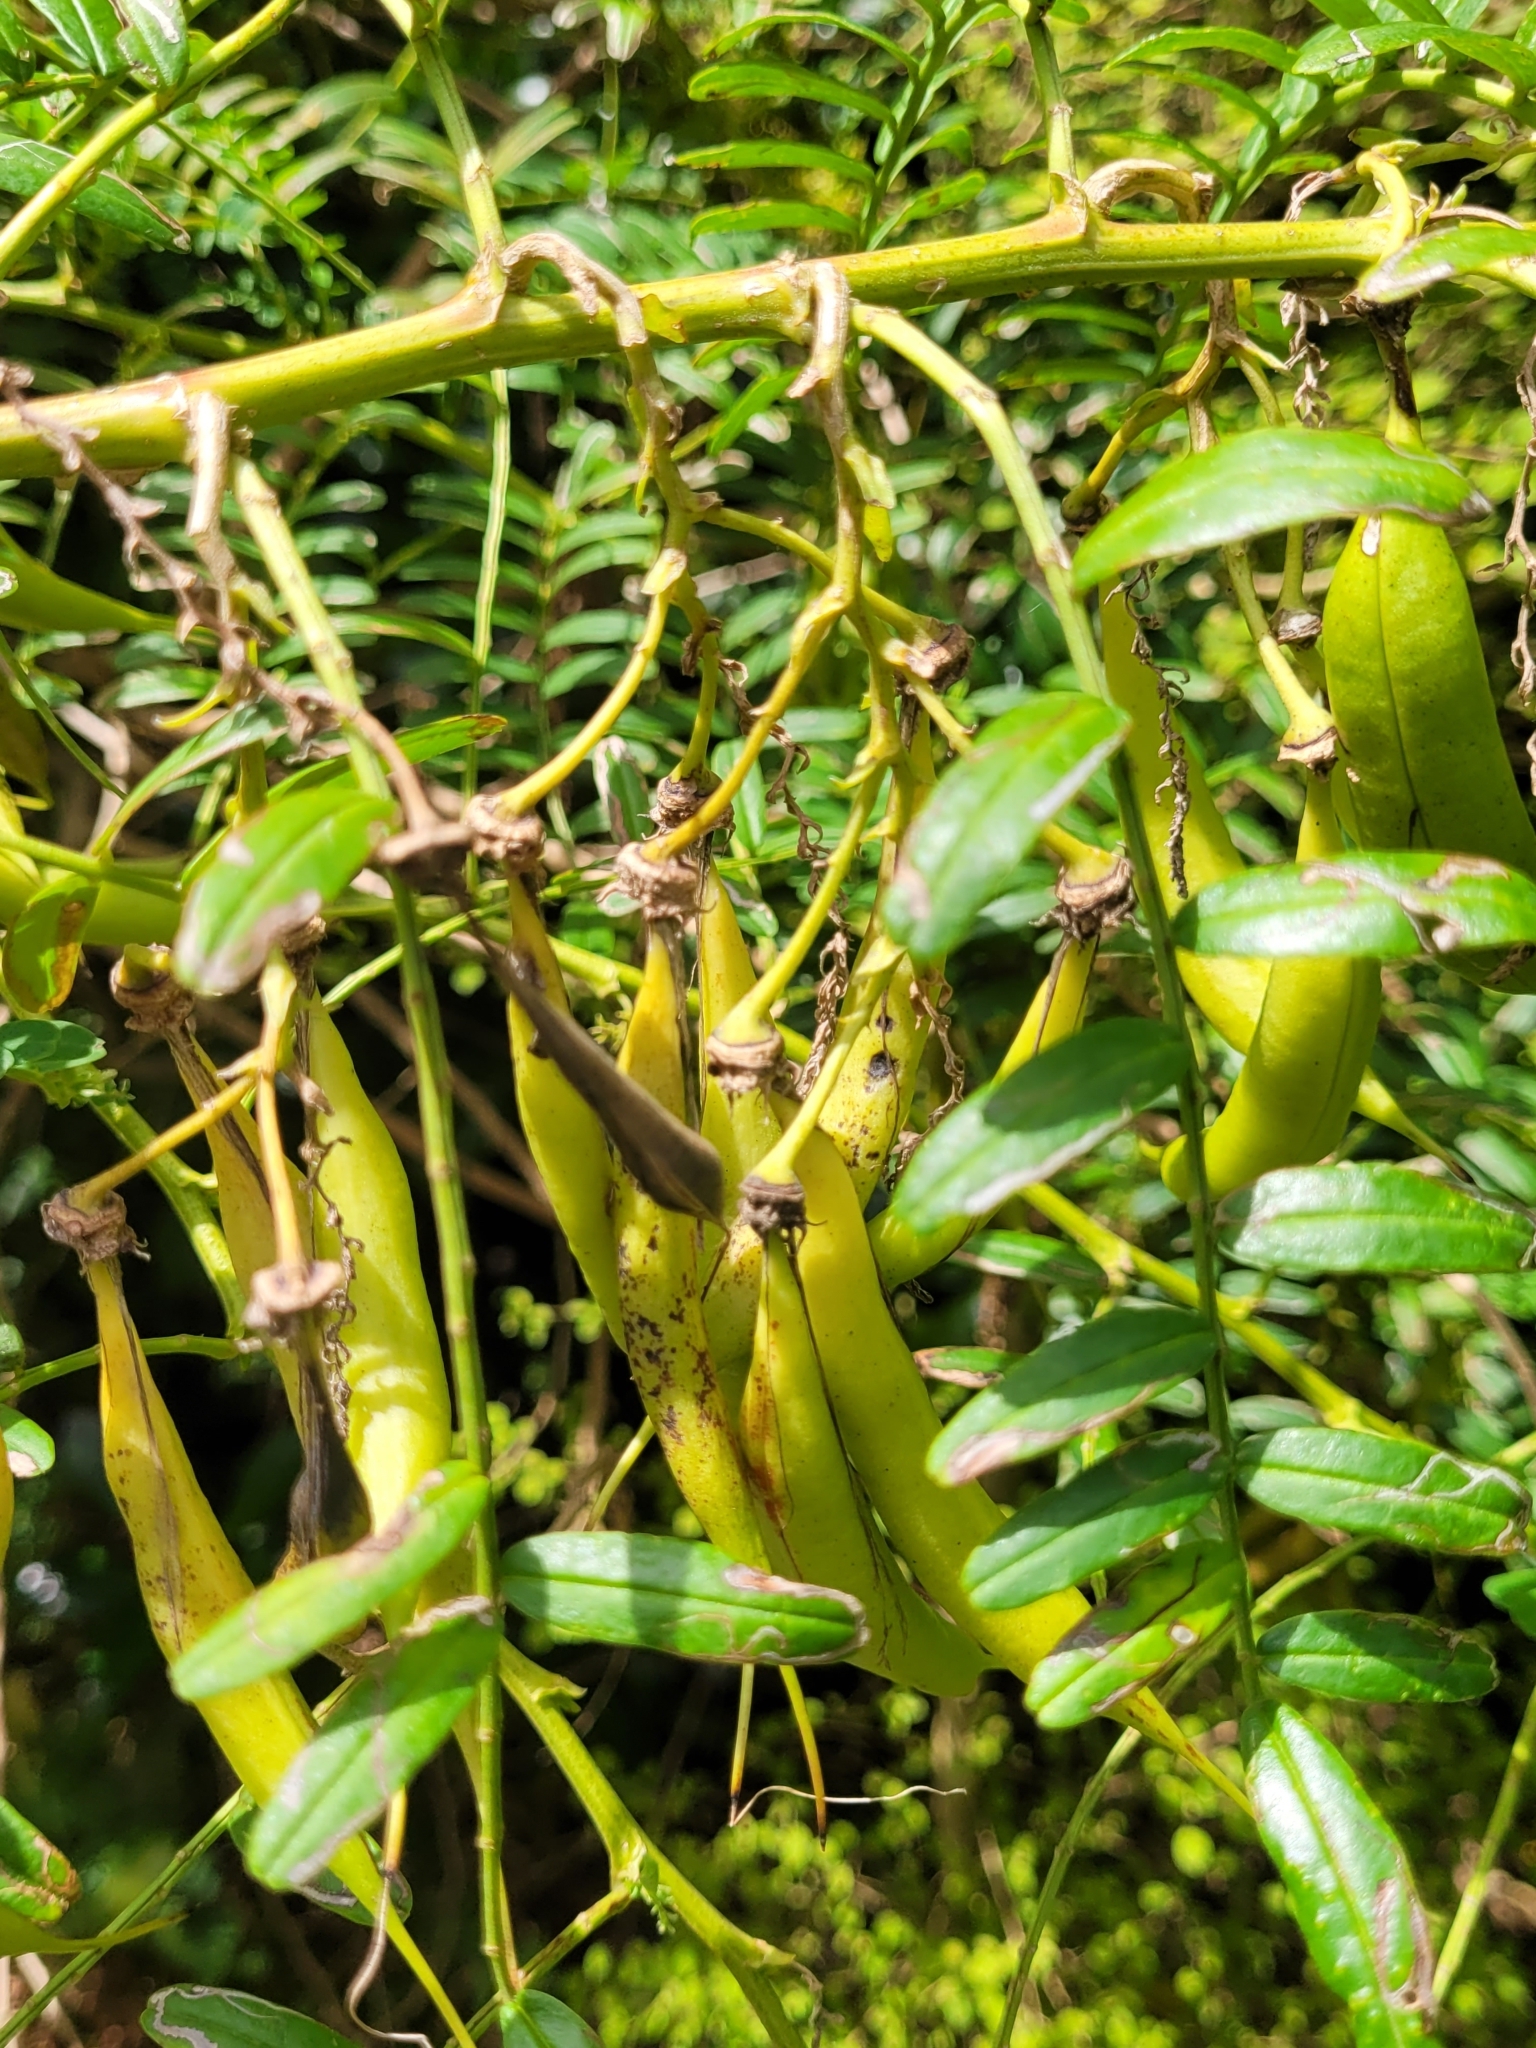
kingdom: Plantae
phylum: Tracheophyta
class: Magnoliopsida
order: Fabales
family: Fabaceae
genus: Clianthus
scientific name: Clianthus puniceus
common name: Kaka-beak
